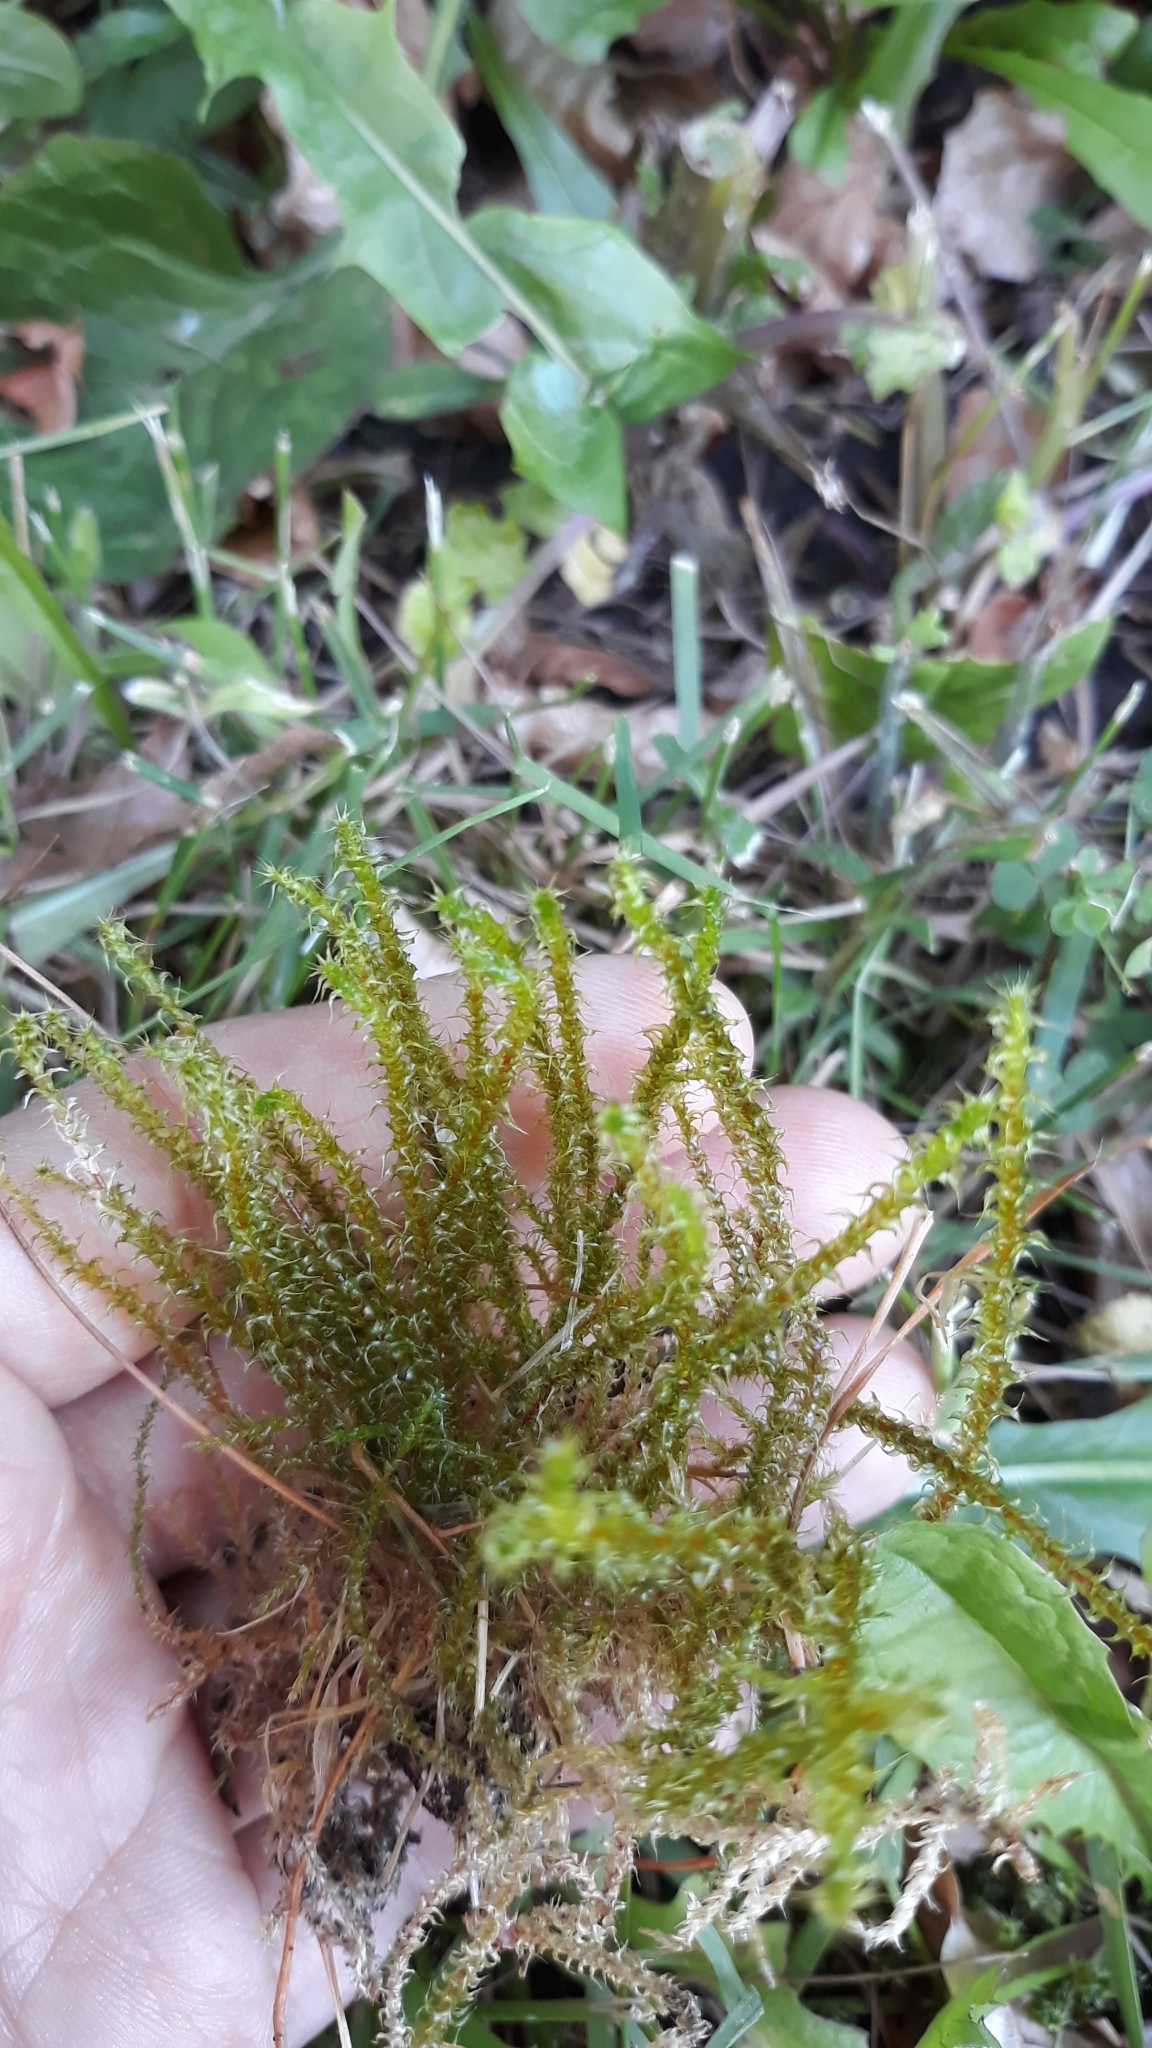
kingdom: Plantae
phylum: Bryophyta
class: Bryopsida
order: Hypnales
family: Hylocomiaceae
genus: Rhytidiadelphus
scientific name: Rhytidiadelphus squarrosus
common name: Springy turf-moss
